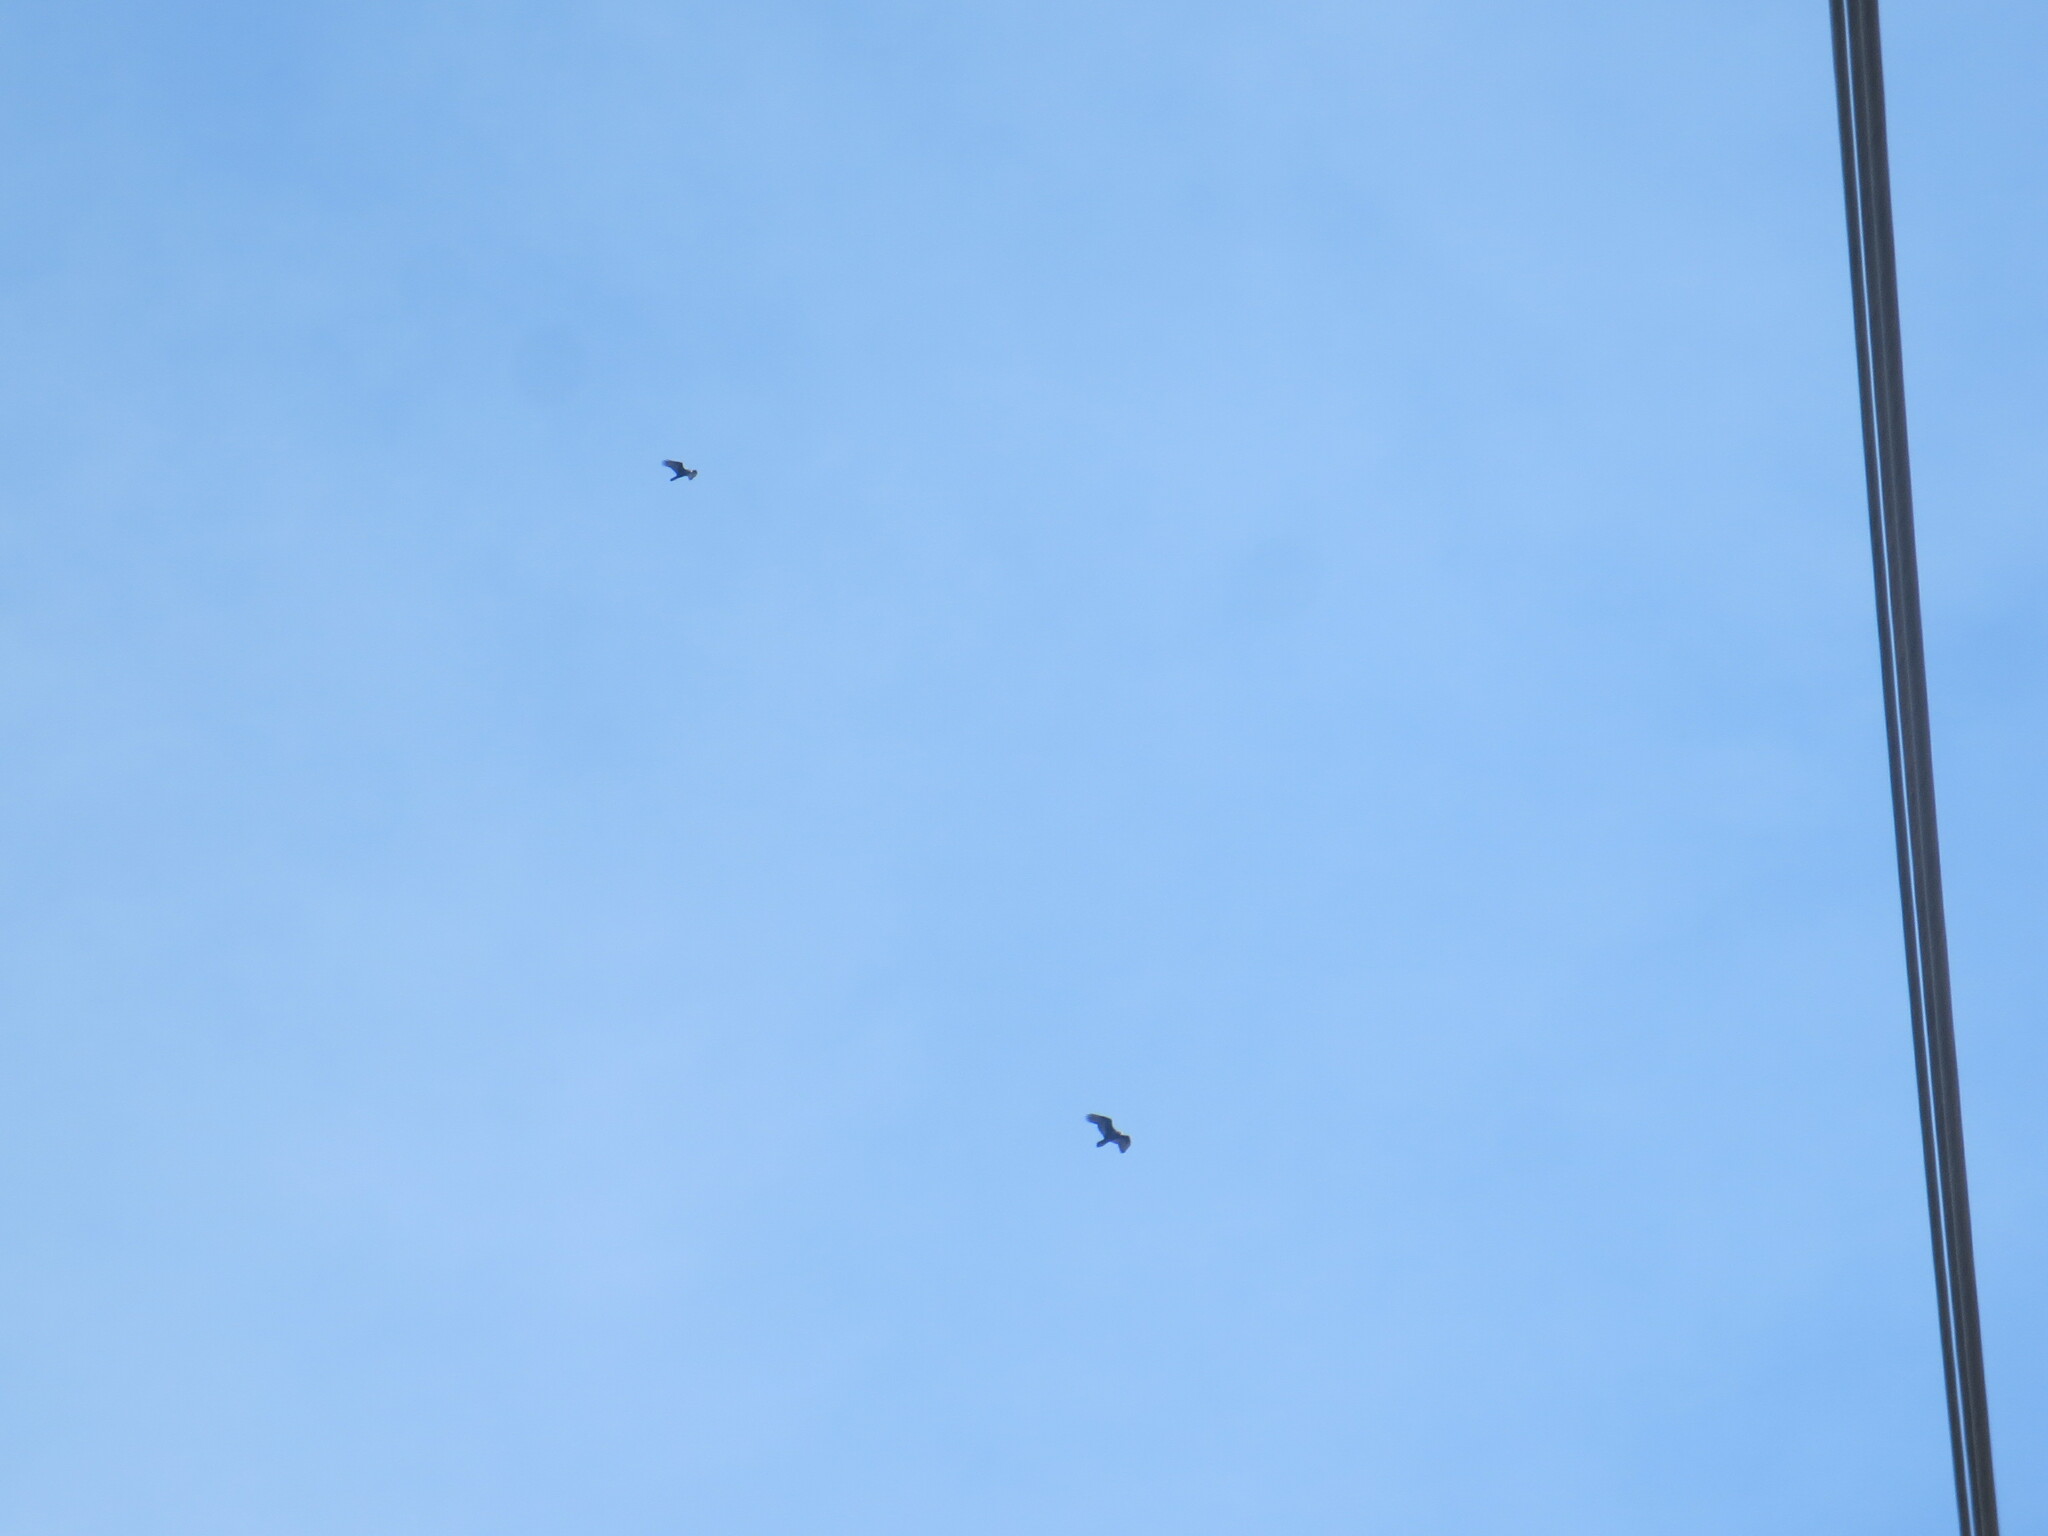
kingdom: Animalia
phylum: Chordata
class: Aves
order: Accipitriformes
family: Cathartidae
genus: Cathartes
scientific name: Cathartes aura
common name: Turkey vulture
